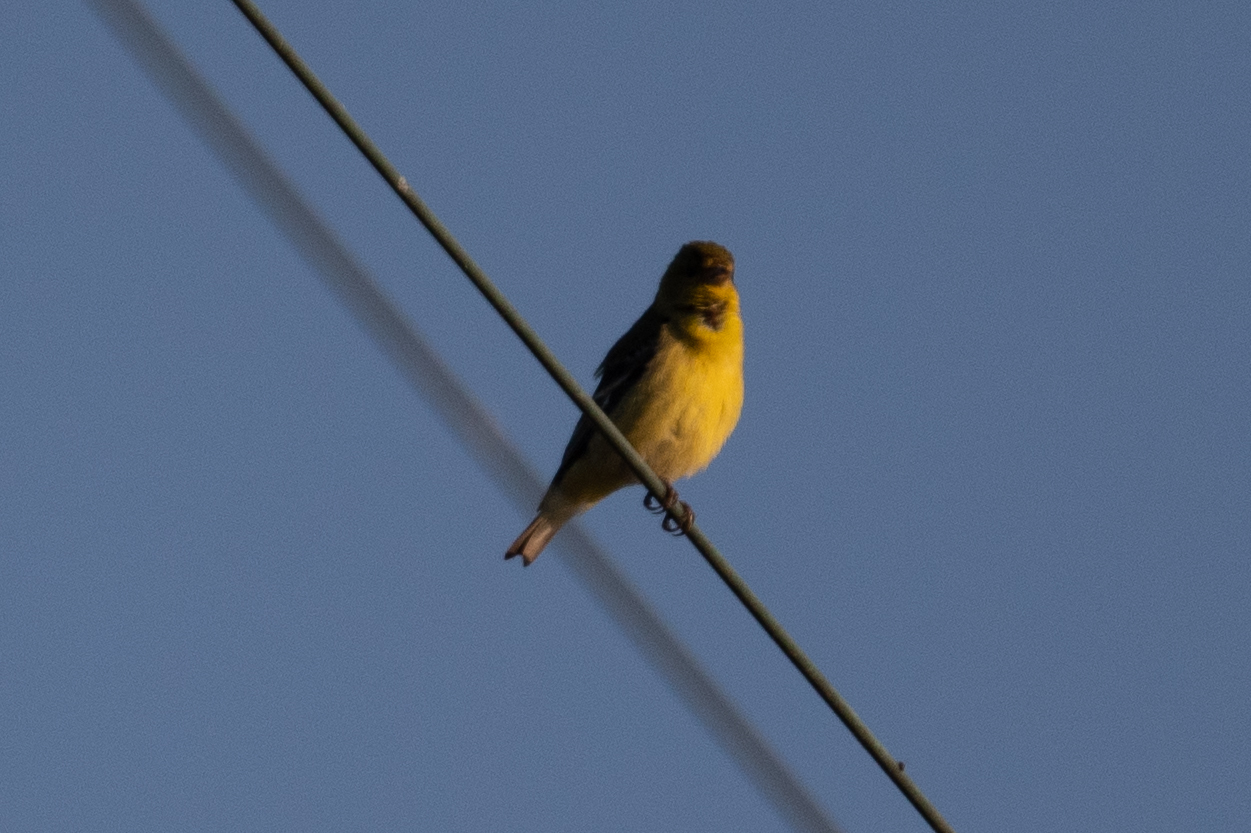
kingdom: Animalia
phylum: Chordata
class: Aves
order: Passeriformes
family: Fringillidae
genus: Spinus
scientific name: Spinus psaltria
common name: Lesser goldfinch
